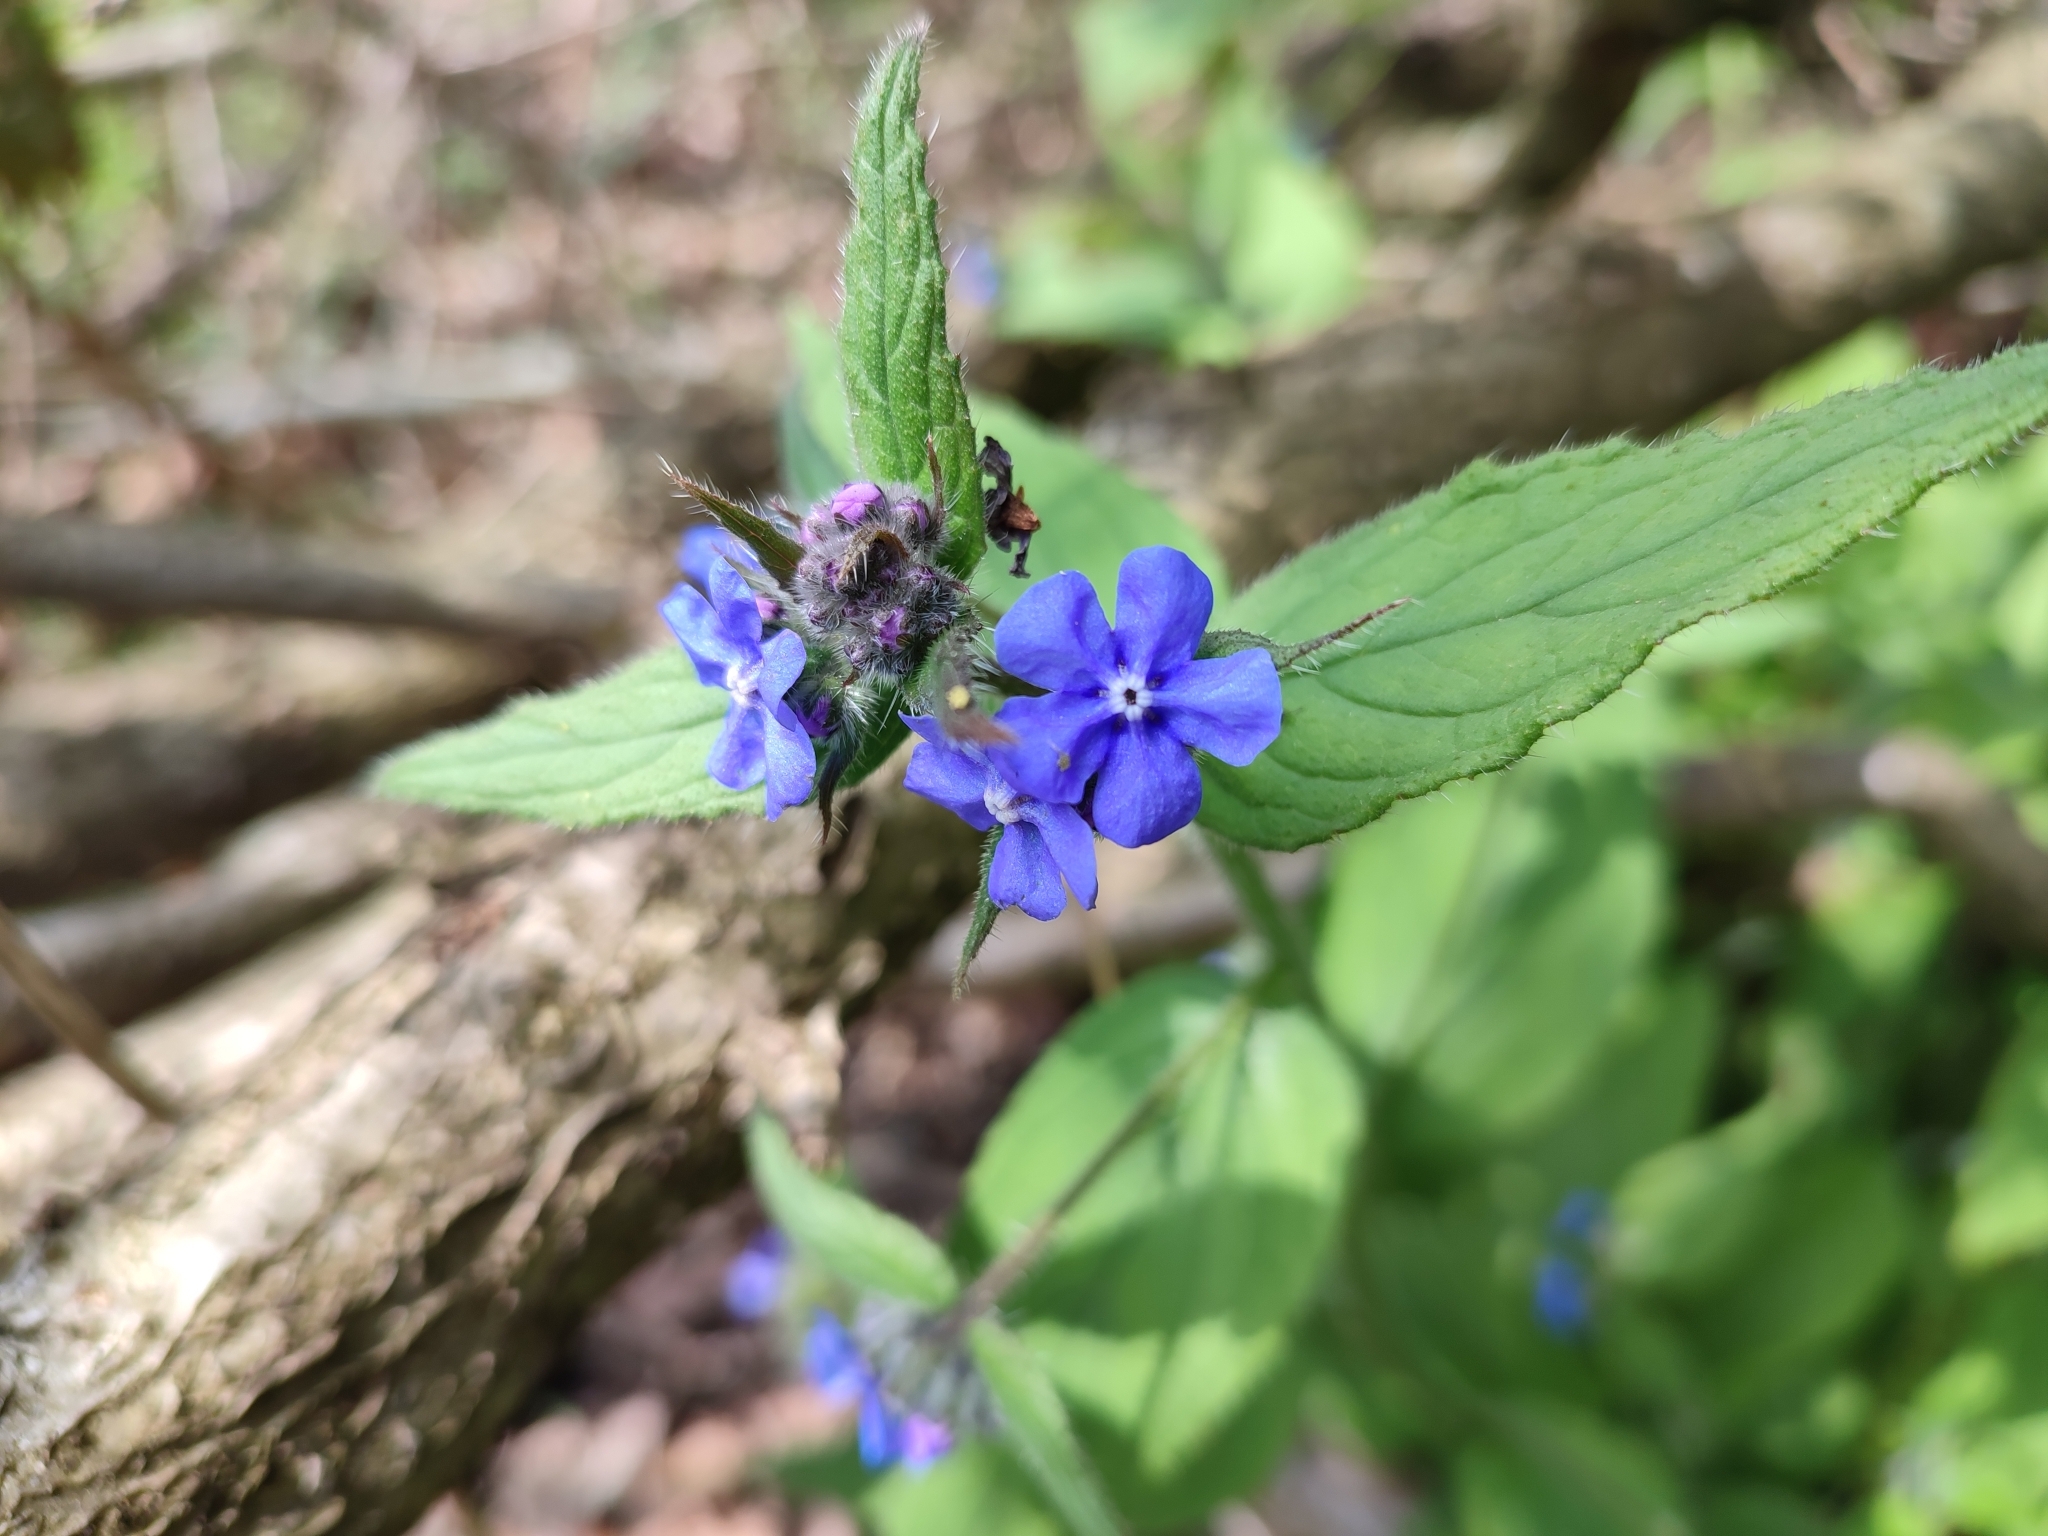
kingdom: Plantae
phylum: Tracheophyta
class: Magnoliopsida
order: Boraginales
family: Boraginaceae
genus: Pentaglottis
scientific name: Pentaglottis sempervirens
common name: Green alkanet
